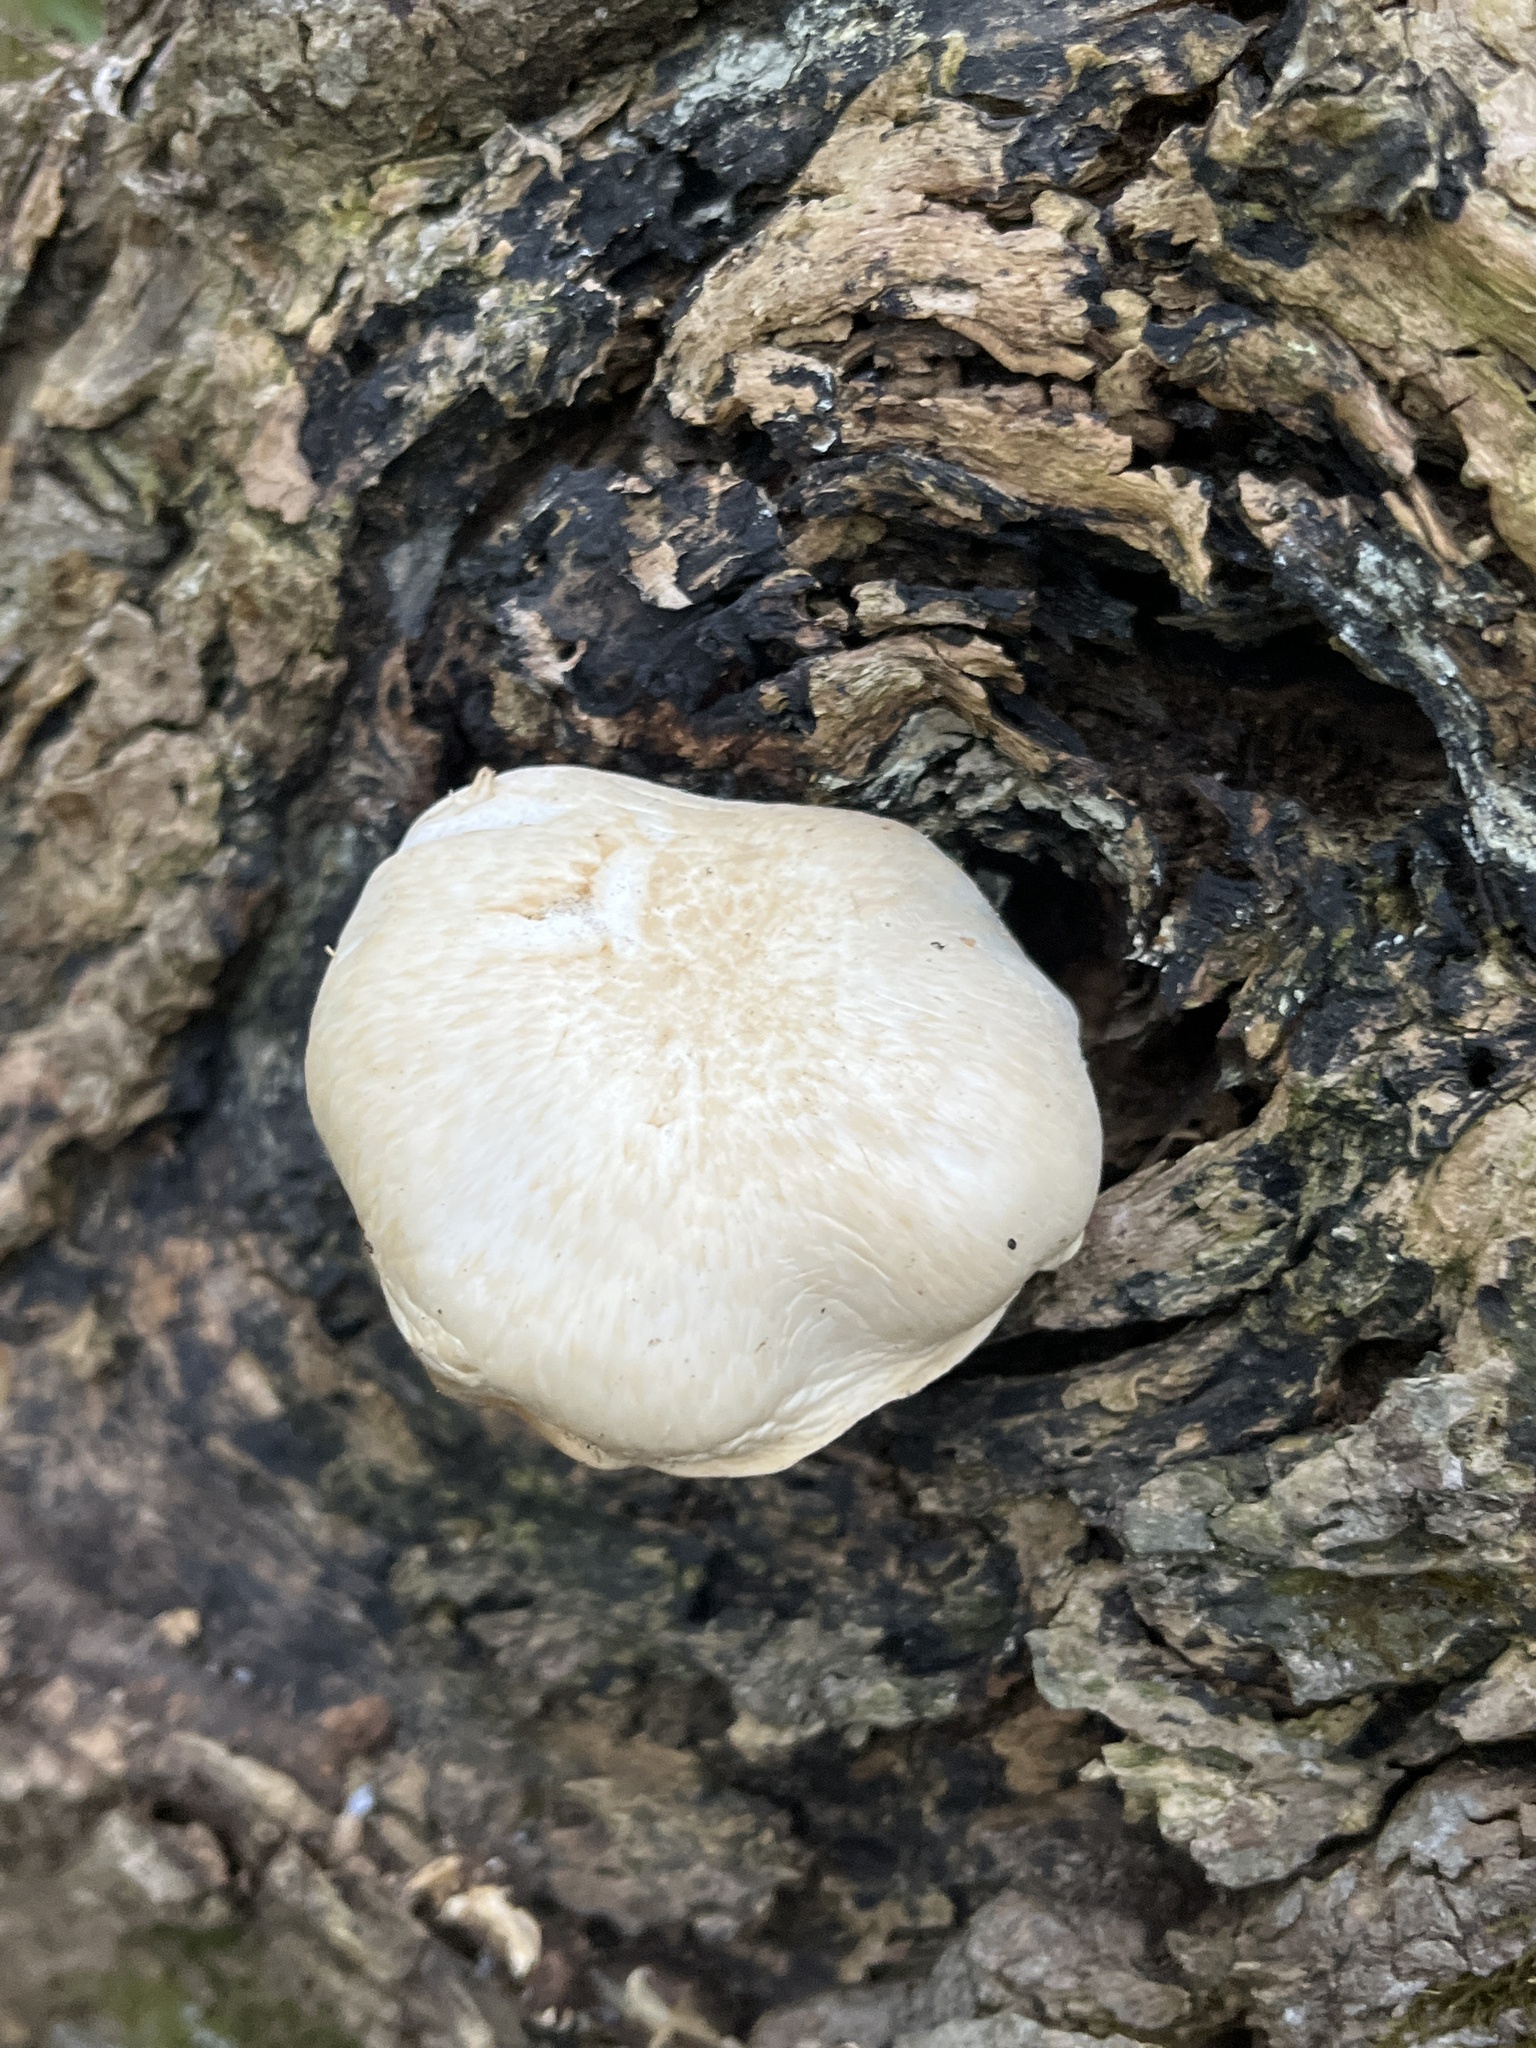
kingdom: Fungi
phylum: Basidiomycota
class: Agaricomycetes
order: Agaricales
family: Lyophyllaceae
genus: Hypsizygus
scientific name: Hypsizygus ulmarius
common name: Elm leech
